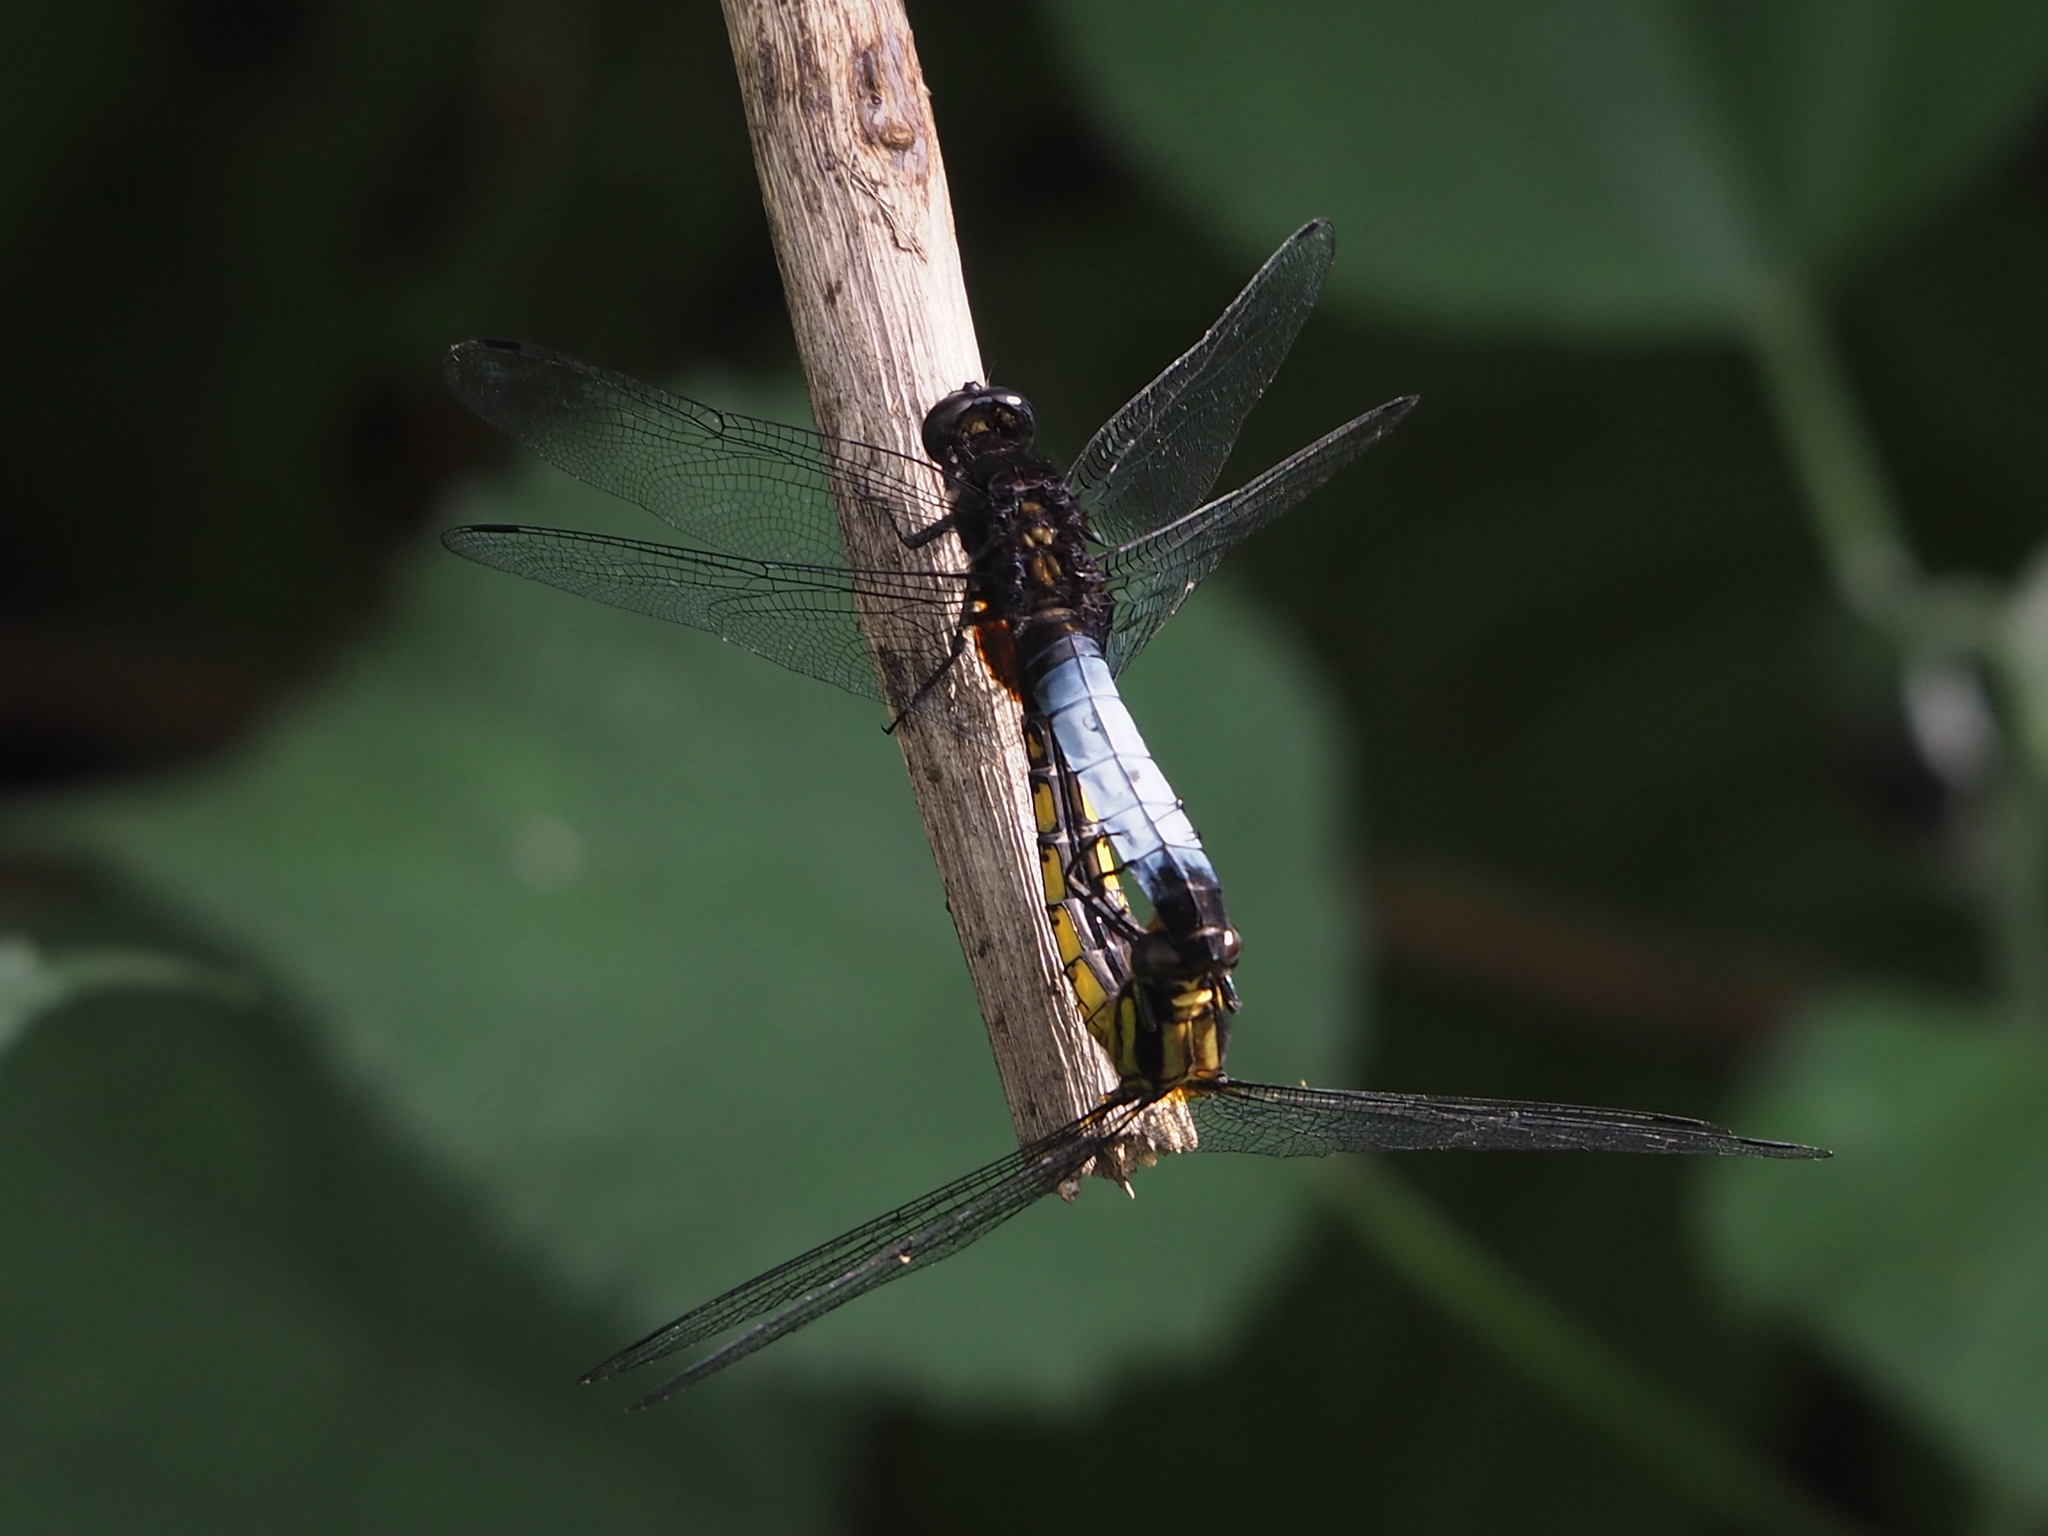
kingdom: Animalia
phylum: Arthropoda
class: Insecta
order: Odonata
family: Libellulidae
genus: Orthetrum
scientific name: Orthetrum triangulare
